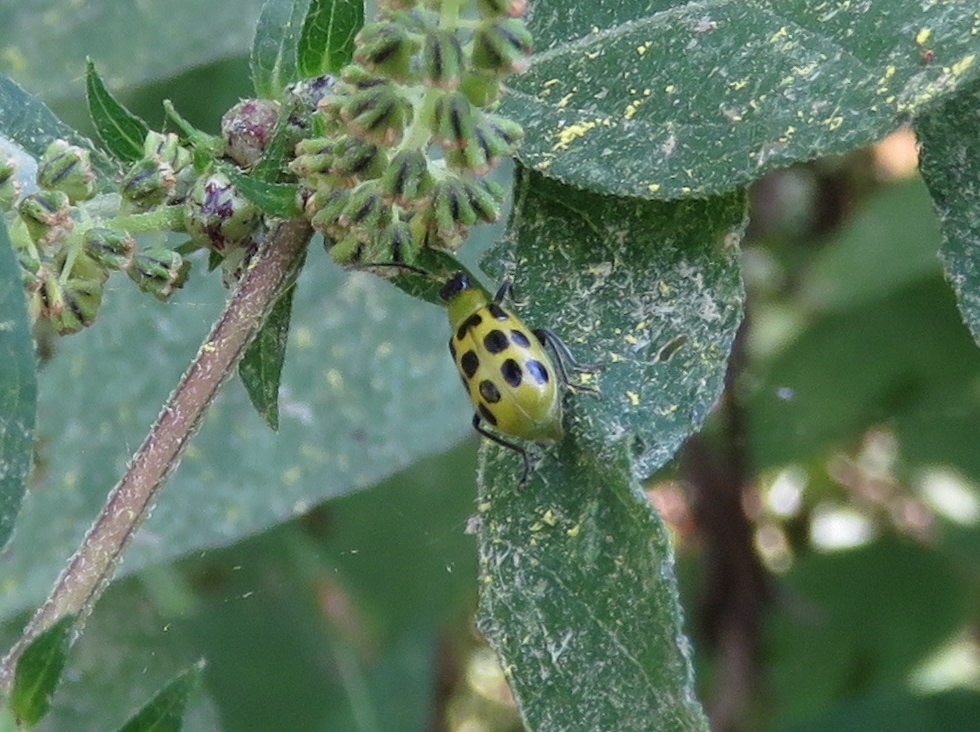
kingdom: Animalia
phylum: Arthropoda
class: Insecta
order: Coleoptera
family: Chrysomelidae
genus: Diabrotica
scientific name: Diabrotica undecimpunctata
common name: Spotted cucumber beetle
